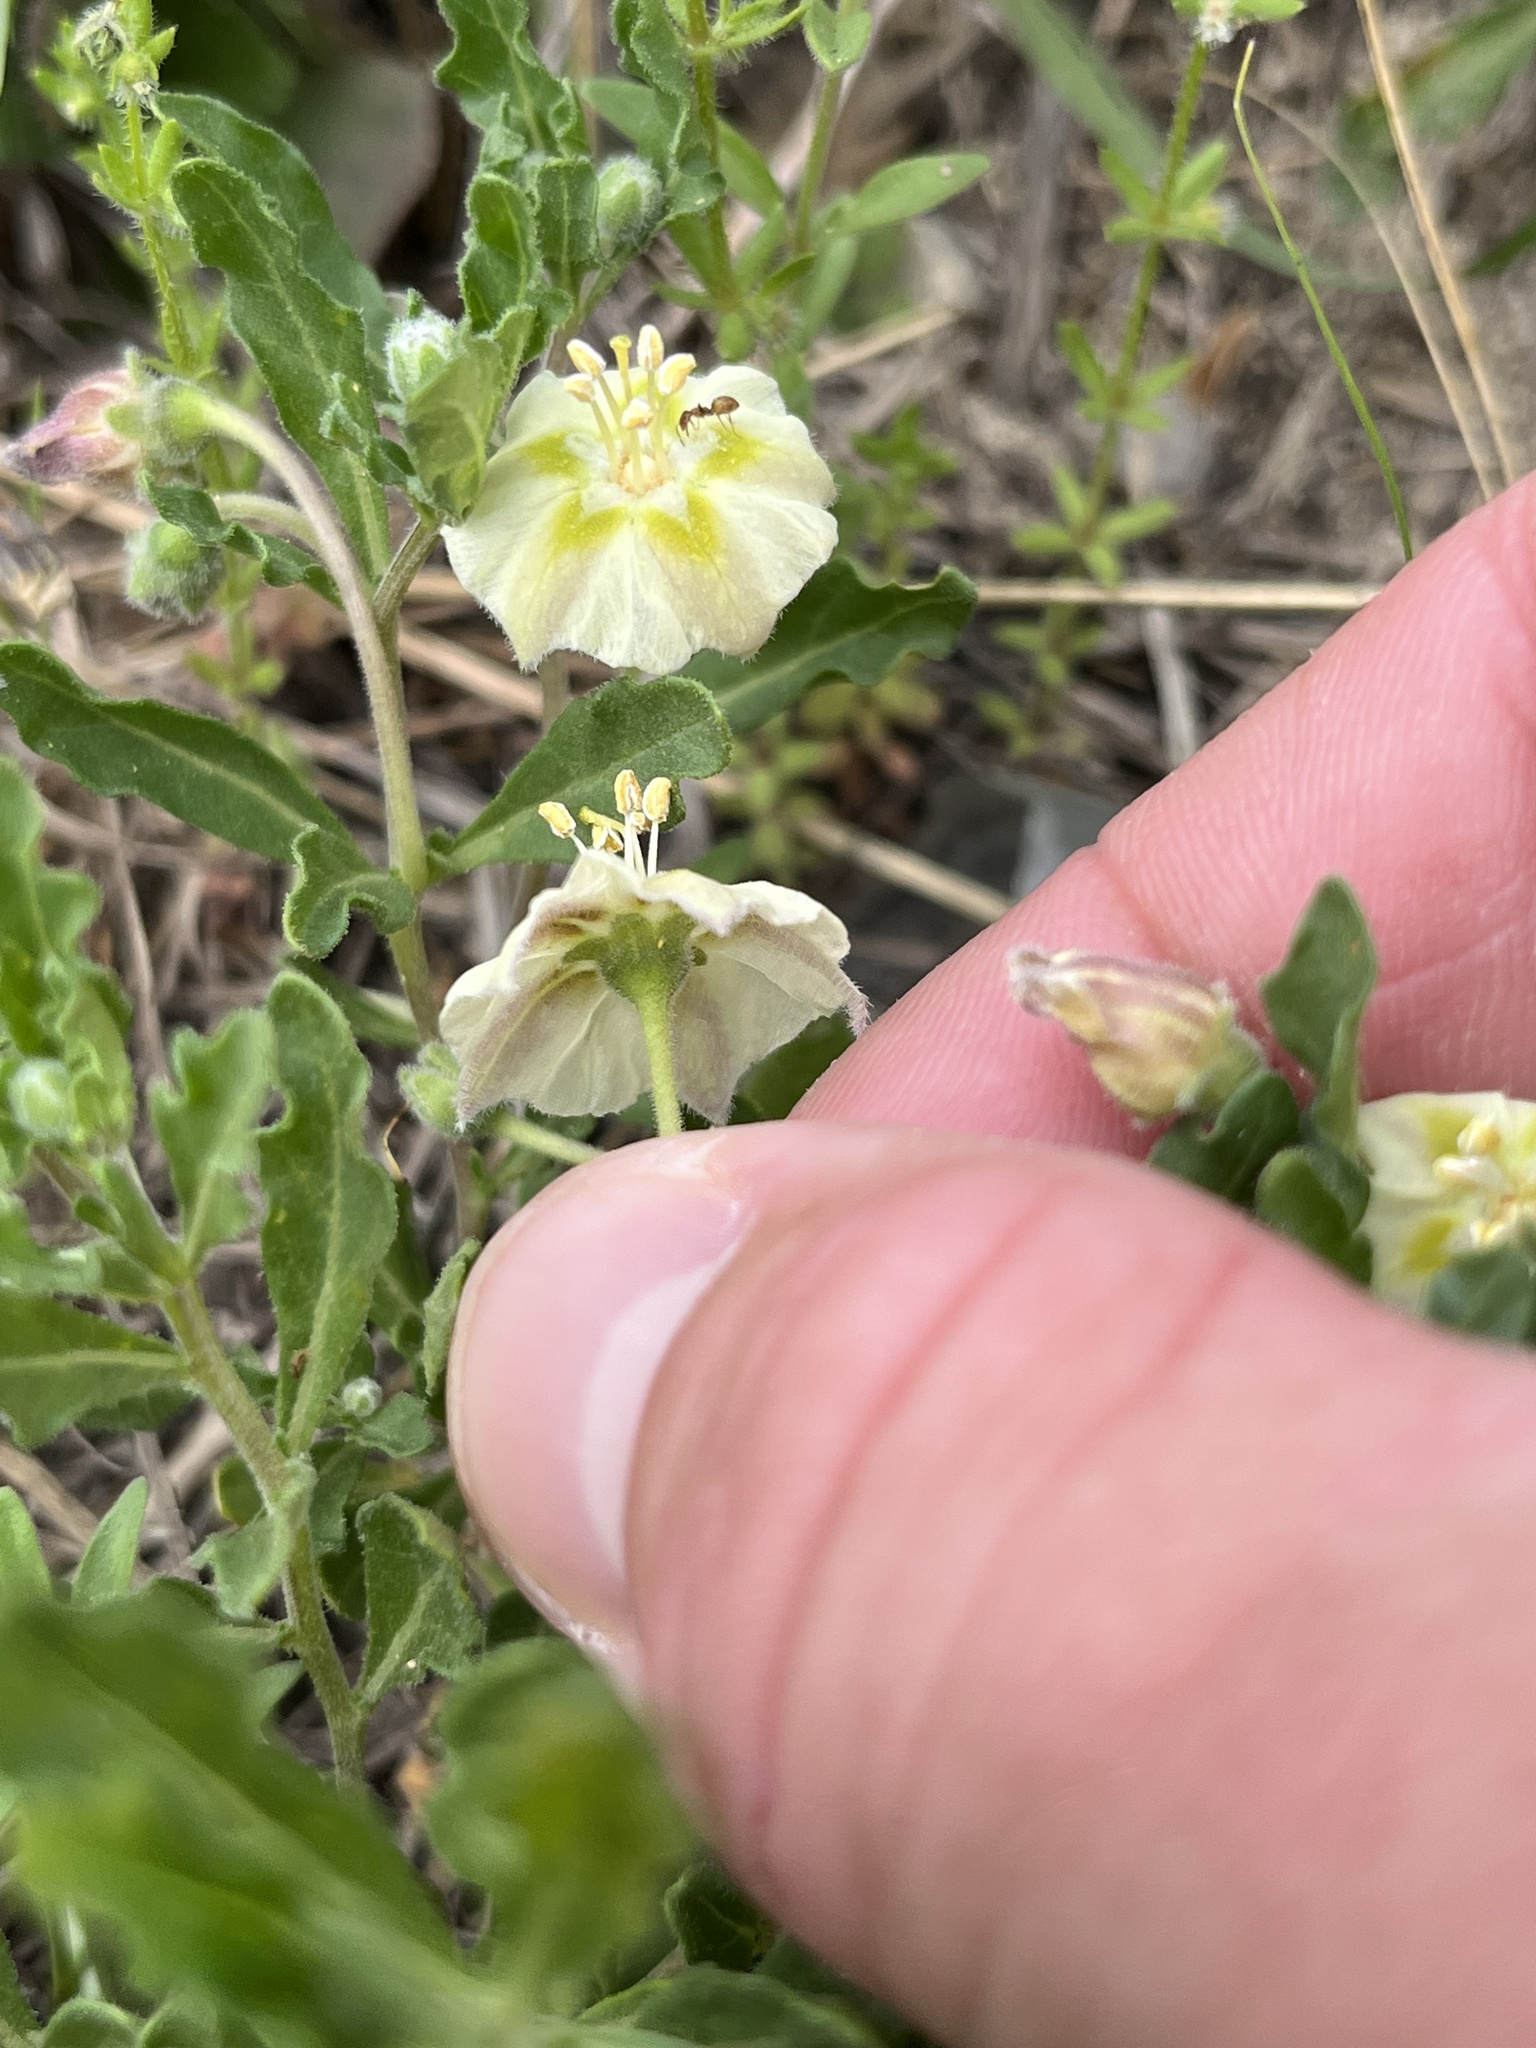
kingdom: Plantae
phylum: Tracheophyta
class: Magnoliopsida
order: Solanales
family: Solanaceae
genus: Chamaesaracha
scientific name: Chamaesaracha edwardsiana
